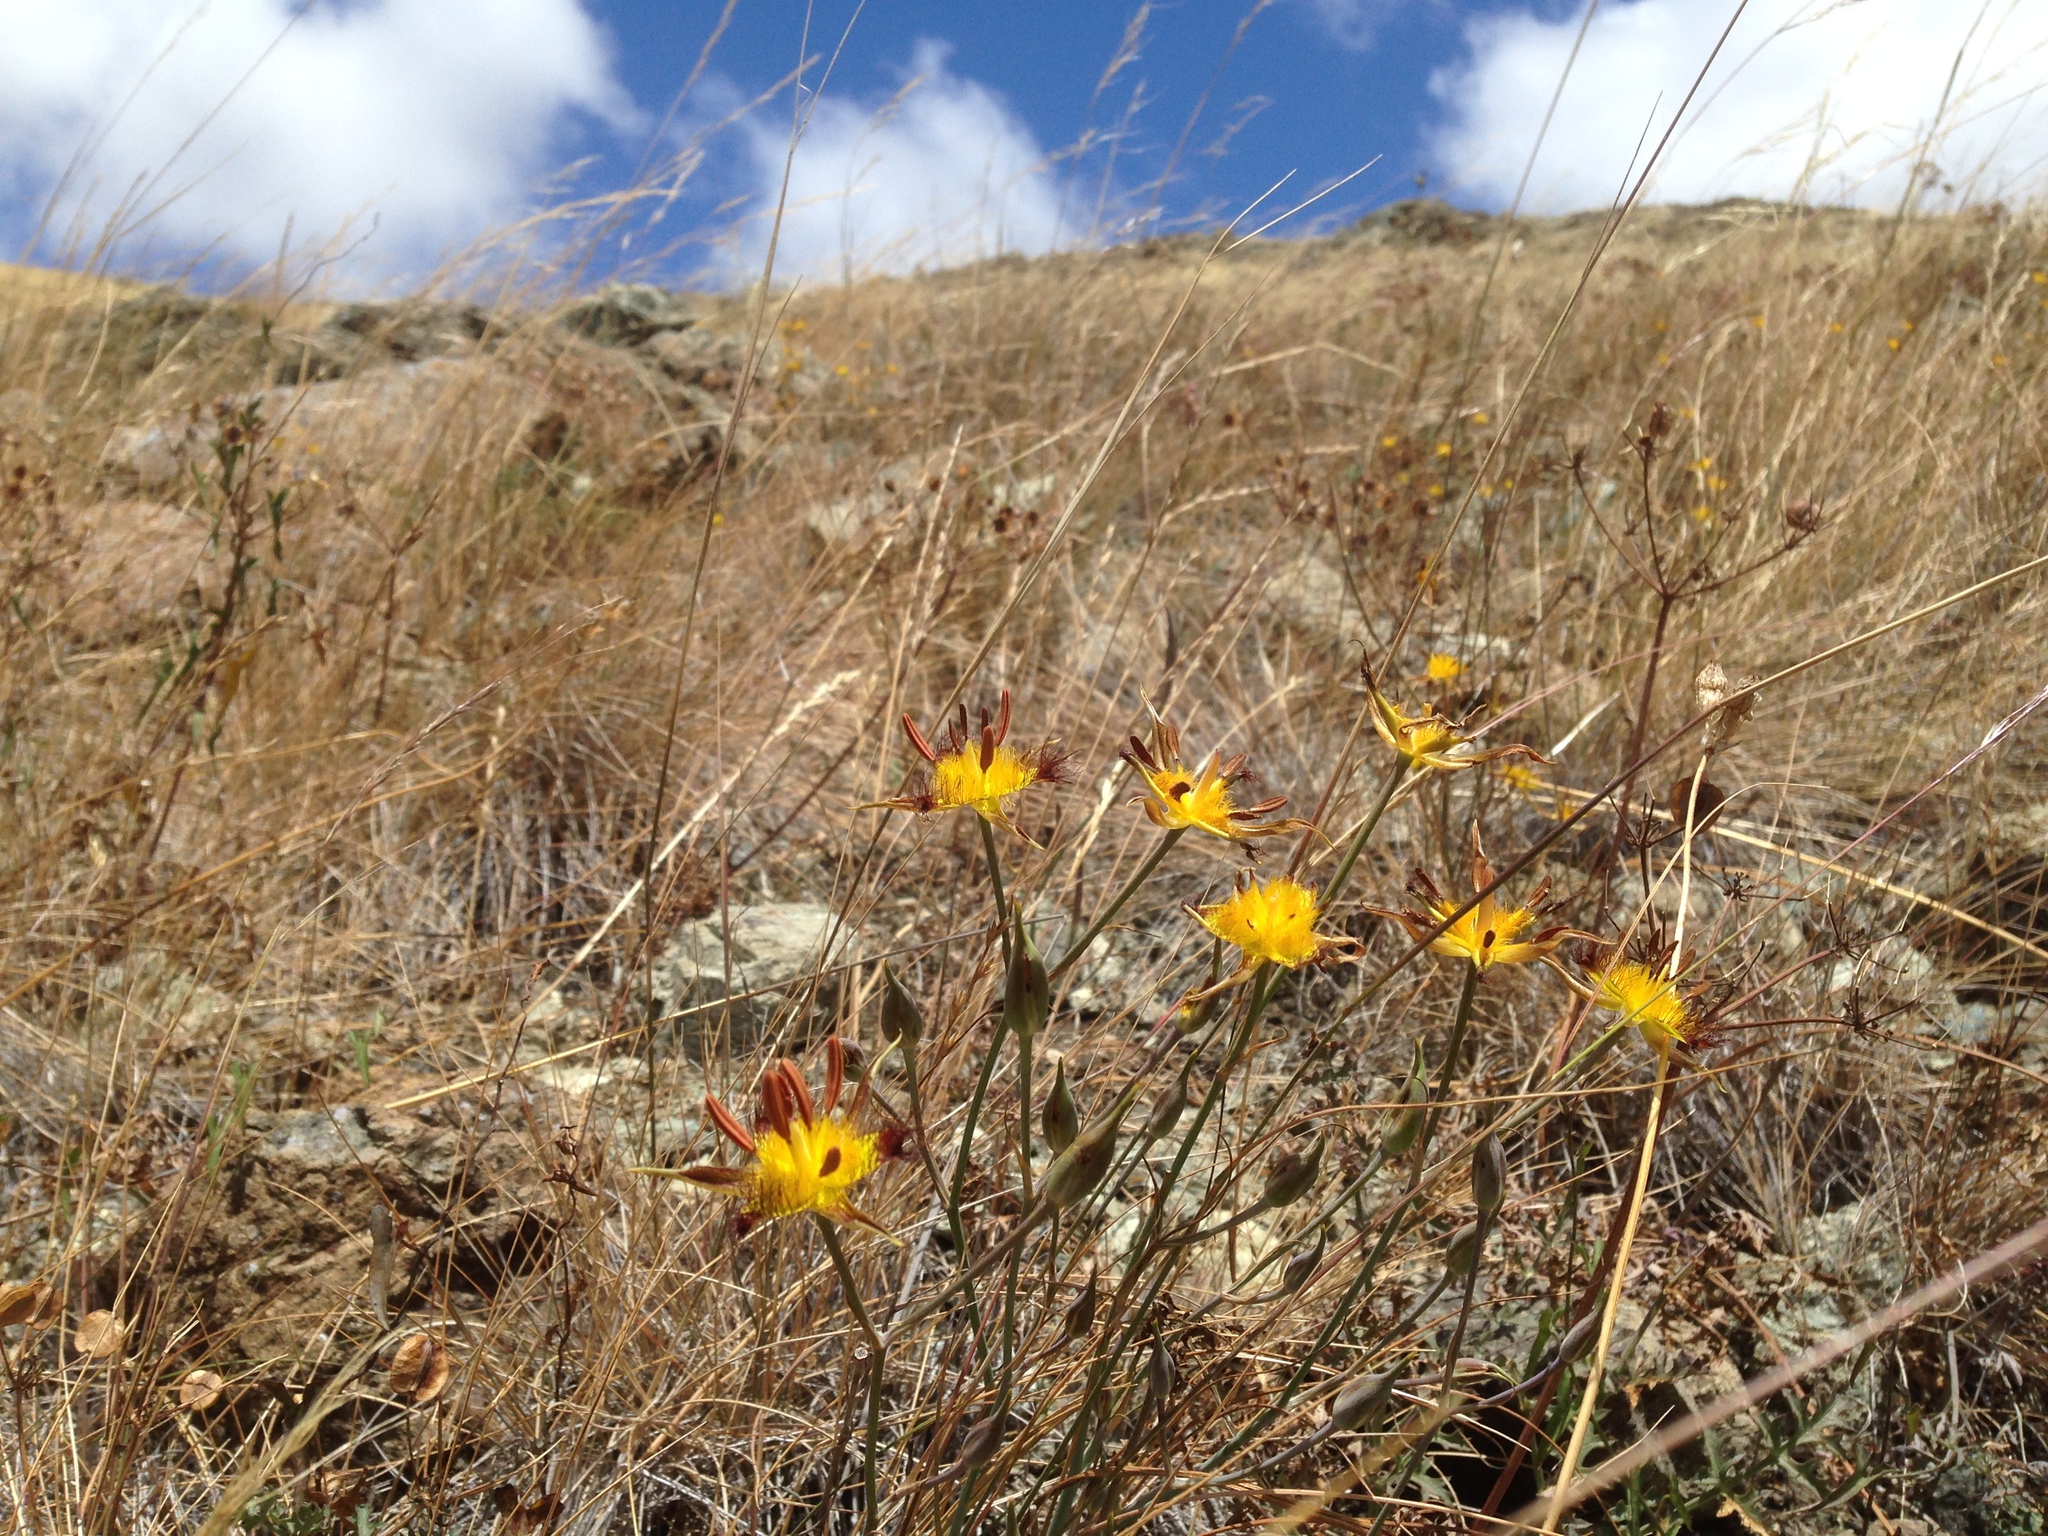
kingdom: Plantae
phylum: Tracheophyta
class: Liliopsida
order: Liliales
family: Liliaceae
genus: Calochortus
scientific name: Calochortus obispoensis
